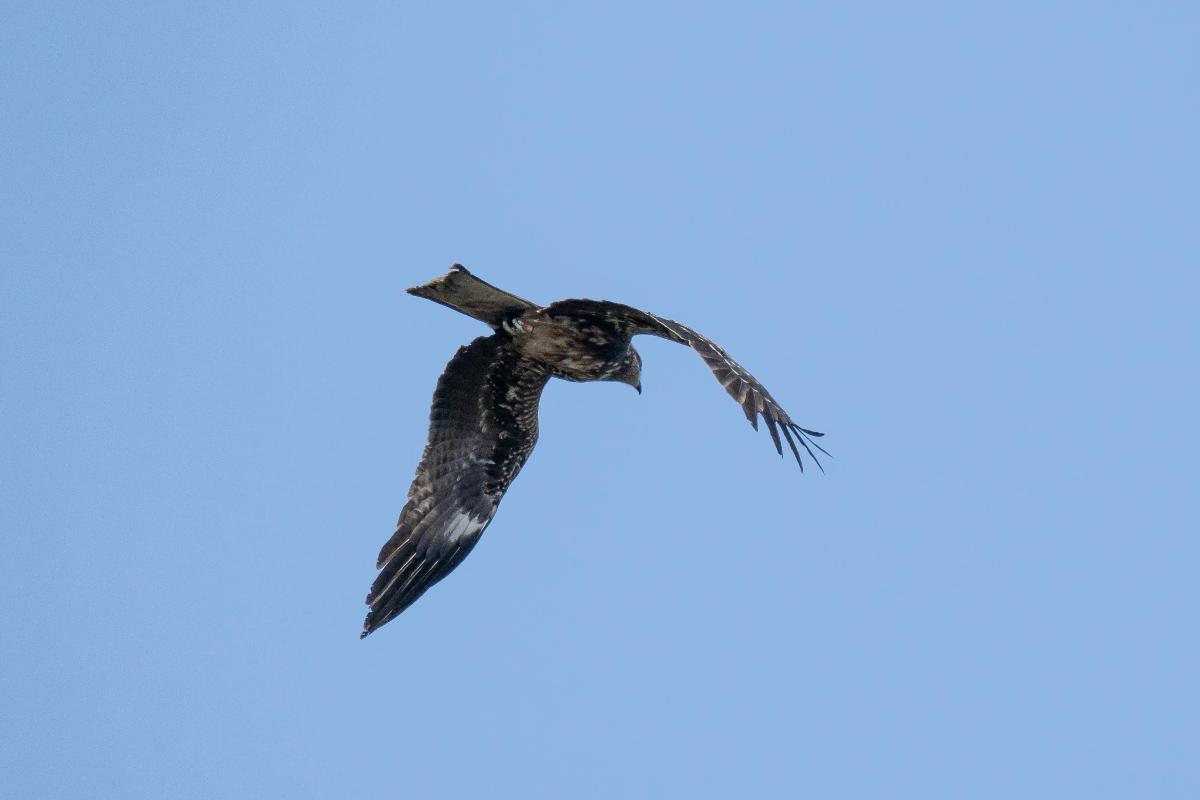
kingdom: Animalia
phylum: Chordata
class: Aves
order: Accipitriformes
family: Accipitridae
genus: Milvus
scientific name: Milvus migrans
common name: Black kite
